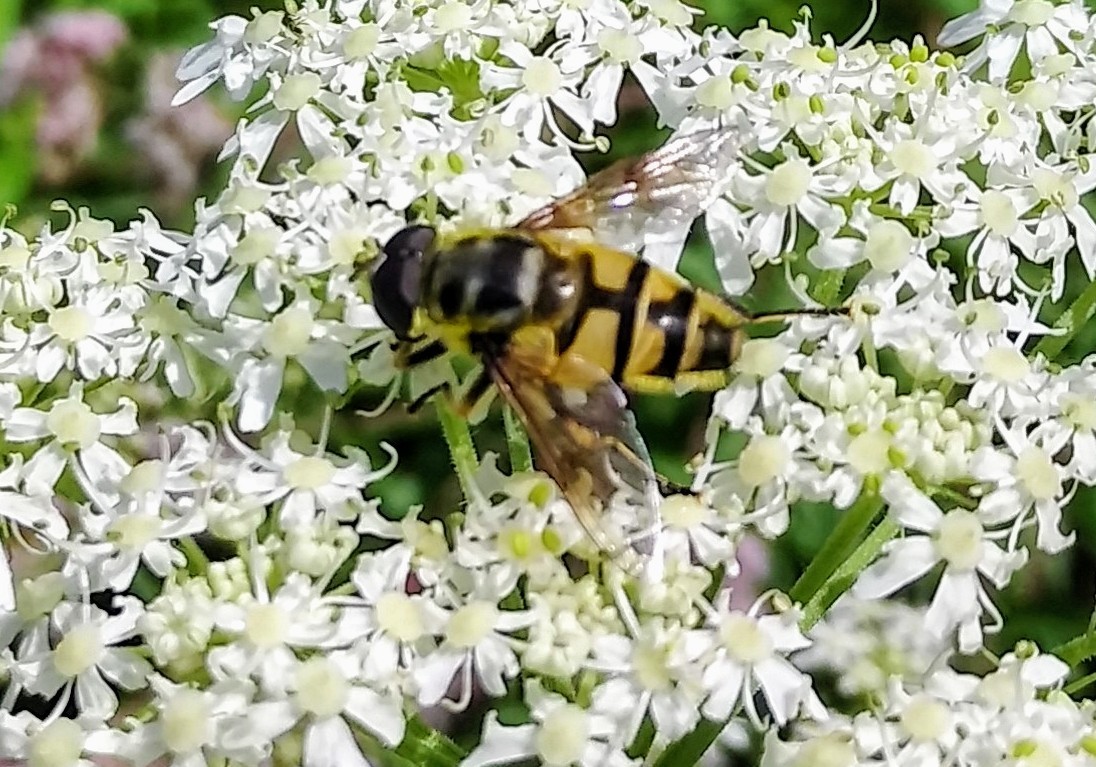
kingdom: Animalia
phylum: Arthropoda
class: Insecta
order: Diptera
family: Syrphidae
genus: Myathropa
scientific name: Myathropa florea
